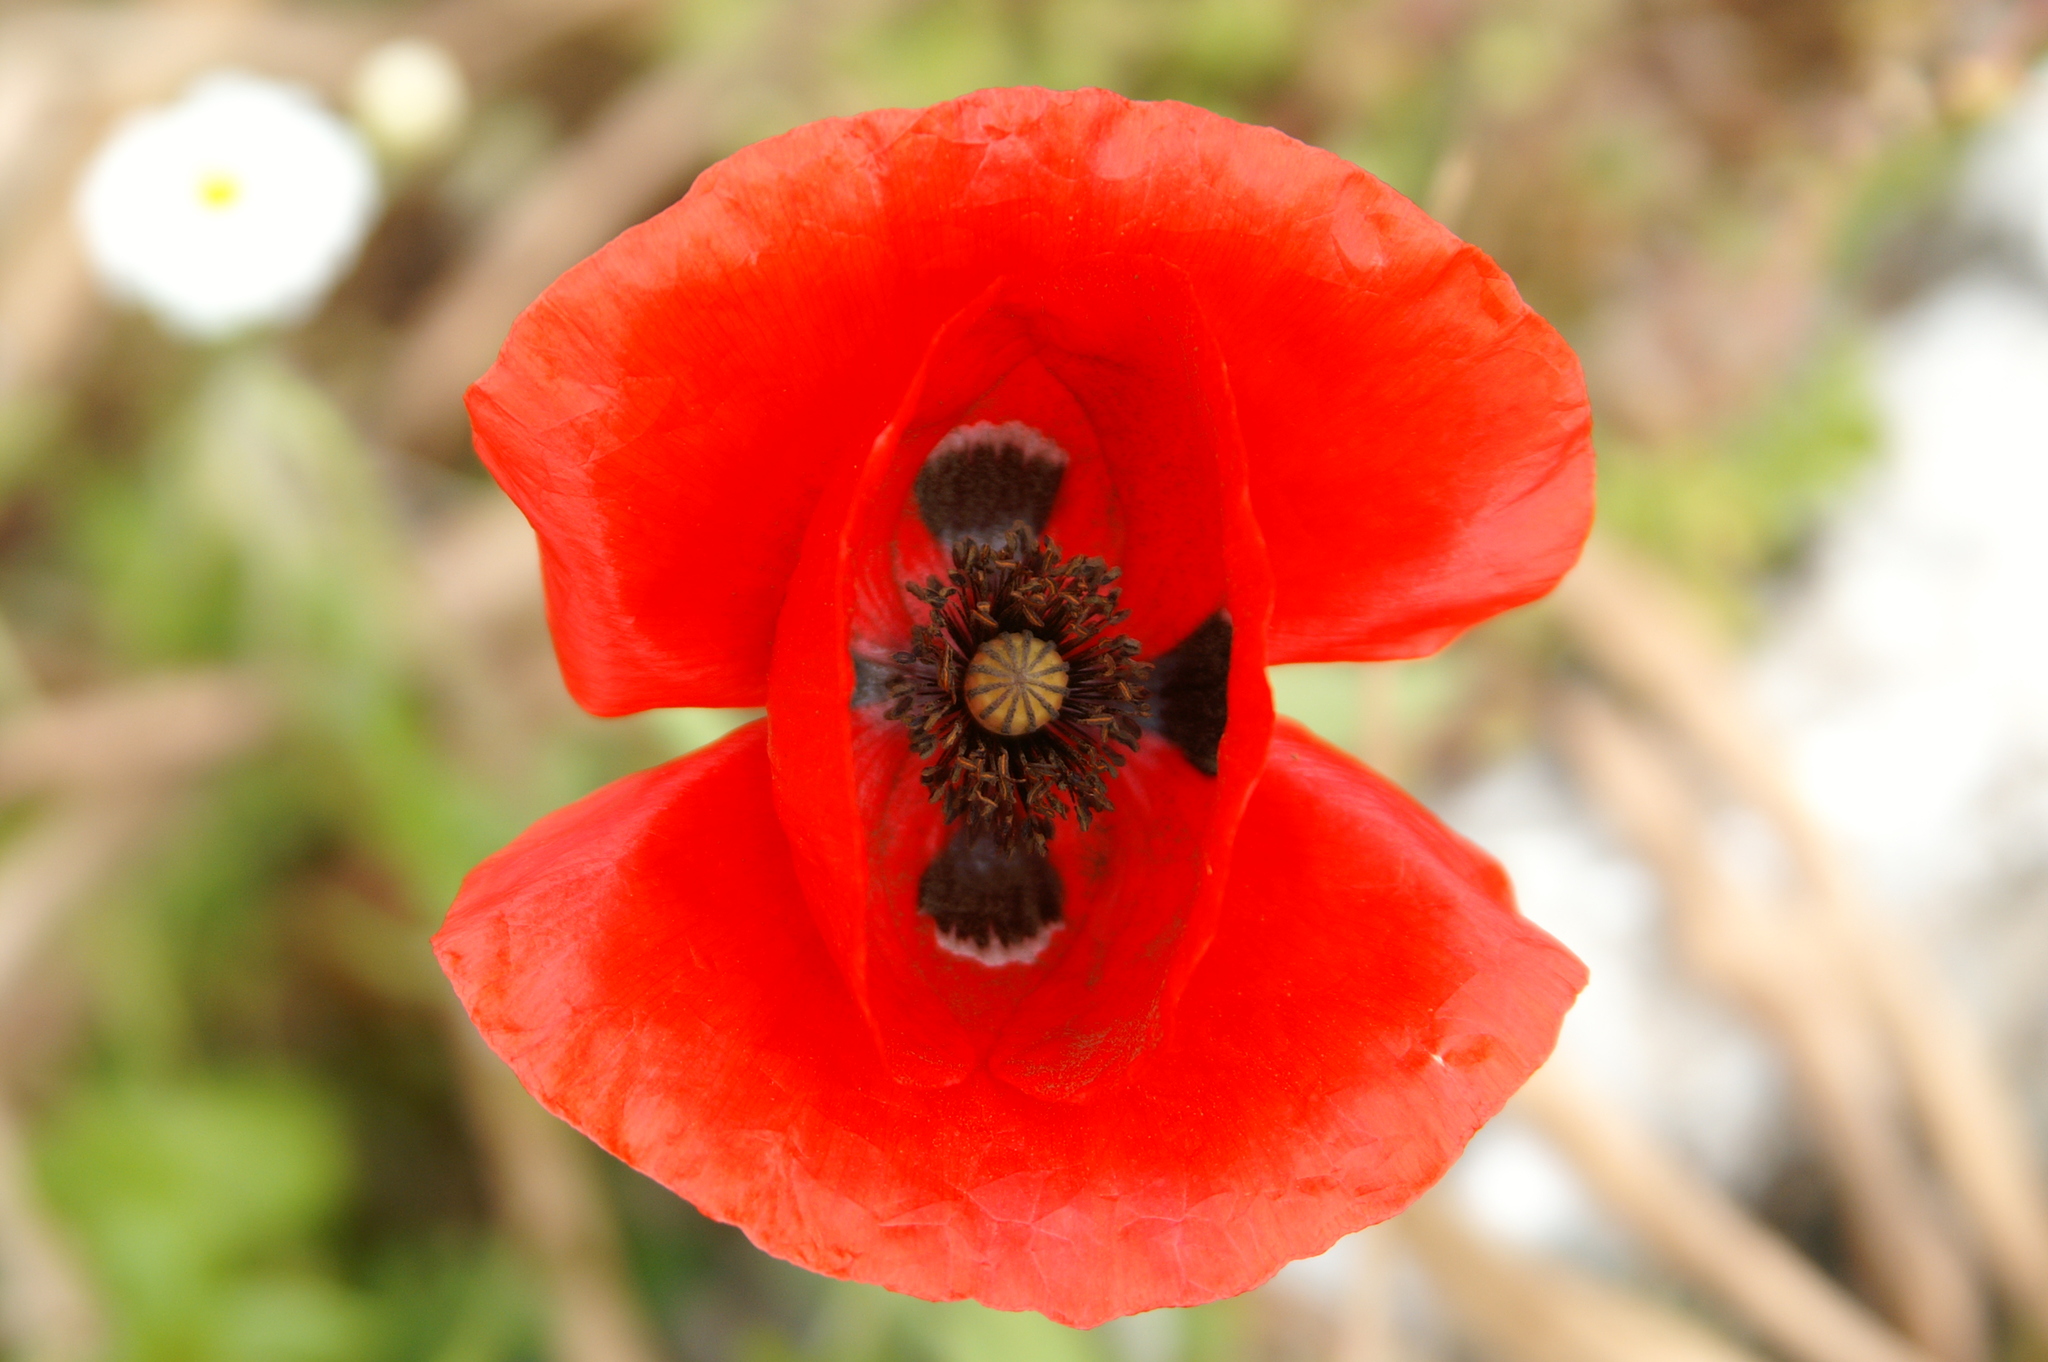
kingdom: Plantae
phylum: Tracheophyta
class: Magnoliopsida
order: Ranunculales
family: Papaveraceae
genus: Papaver
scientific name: Papaver rhoeas
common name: Corn poppy
